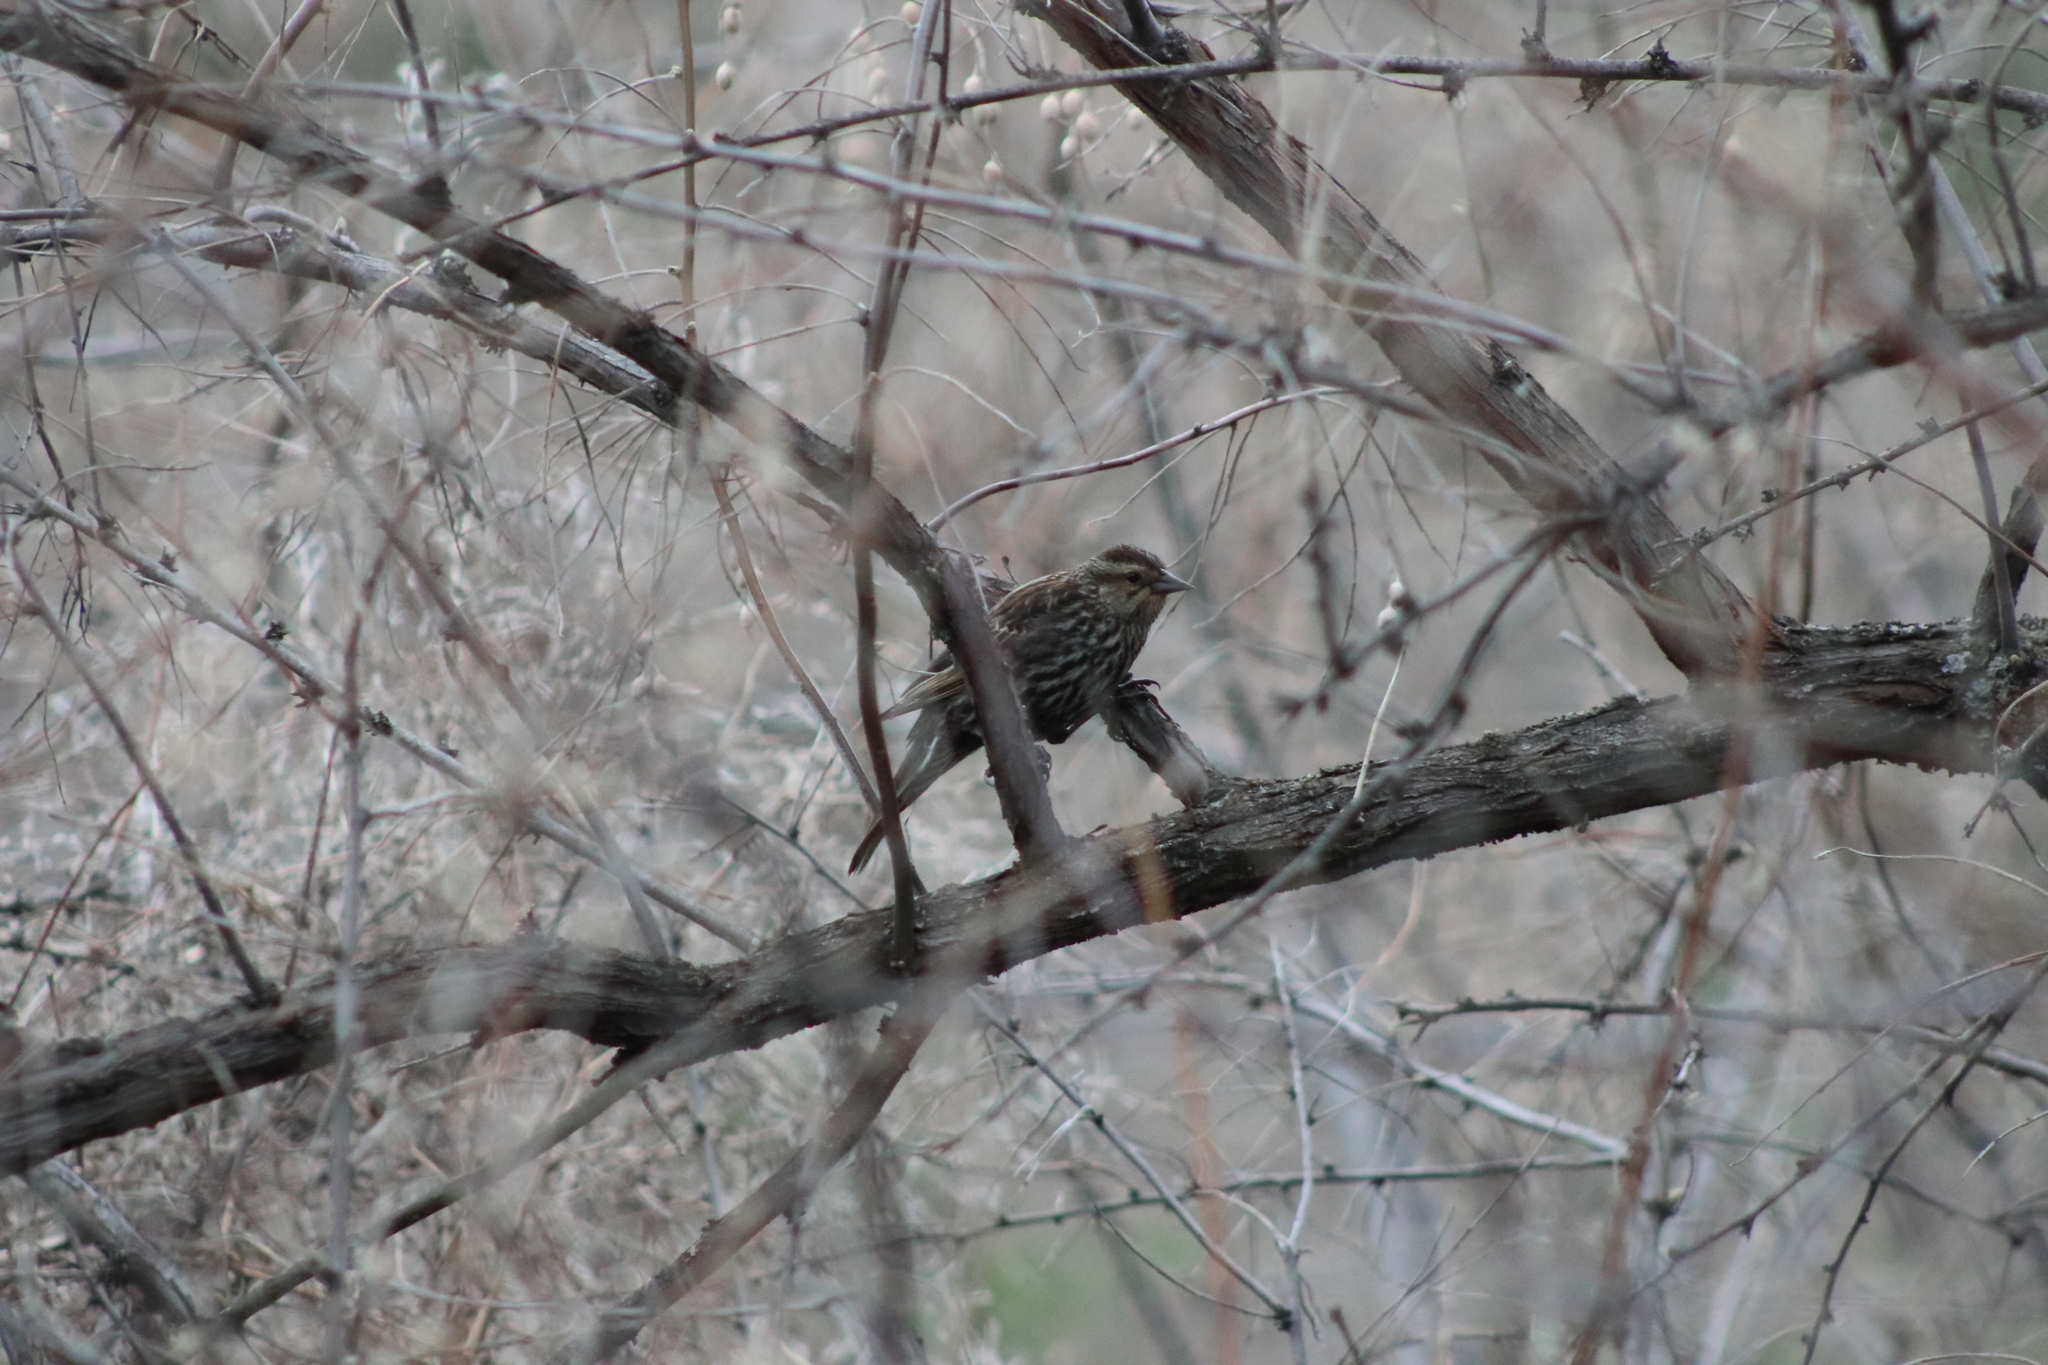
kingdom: Animalia
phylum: Chordata
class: Aves
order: Passeriformes
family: Icteridae
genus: Agelaius
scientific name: Agelaius phoeniceus
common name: Red-winged blackbird
